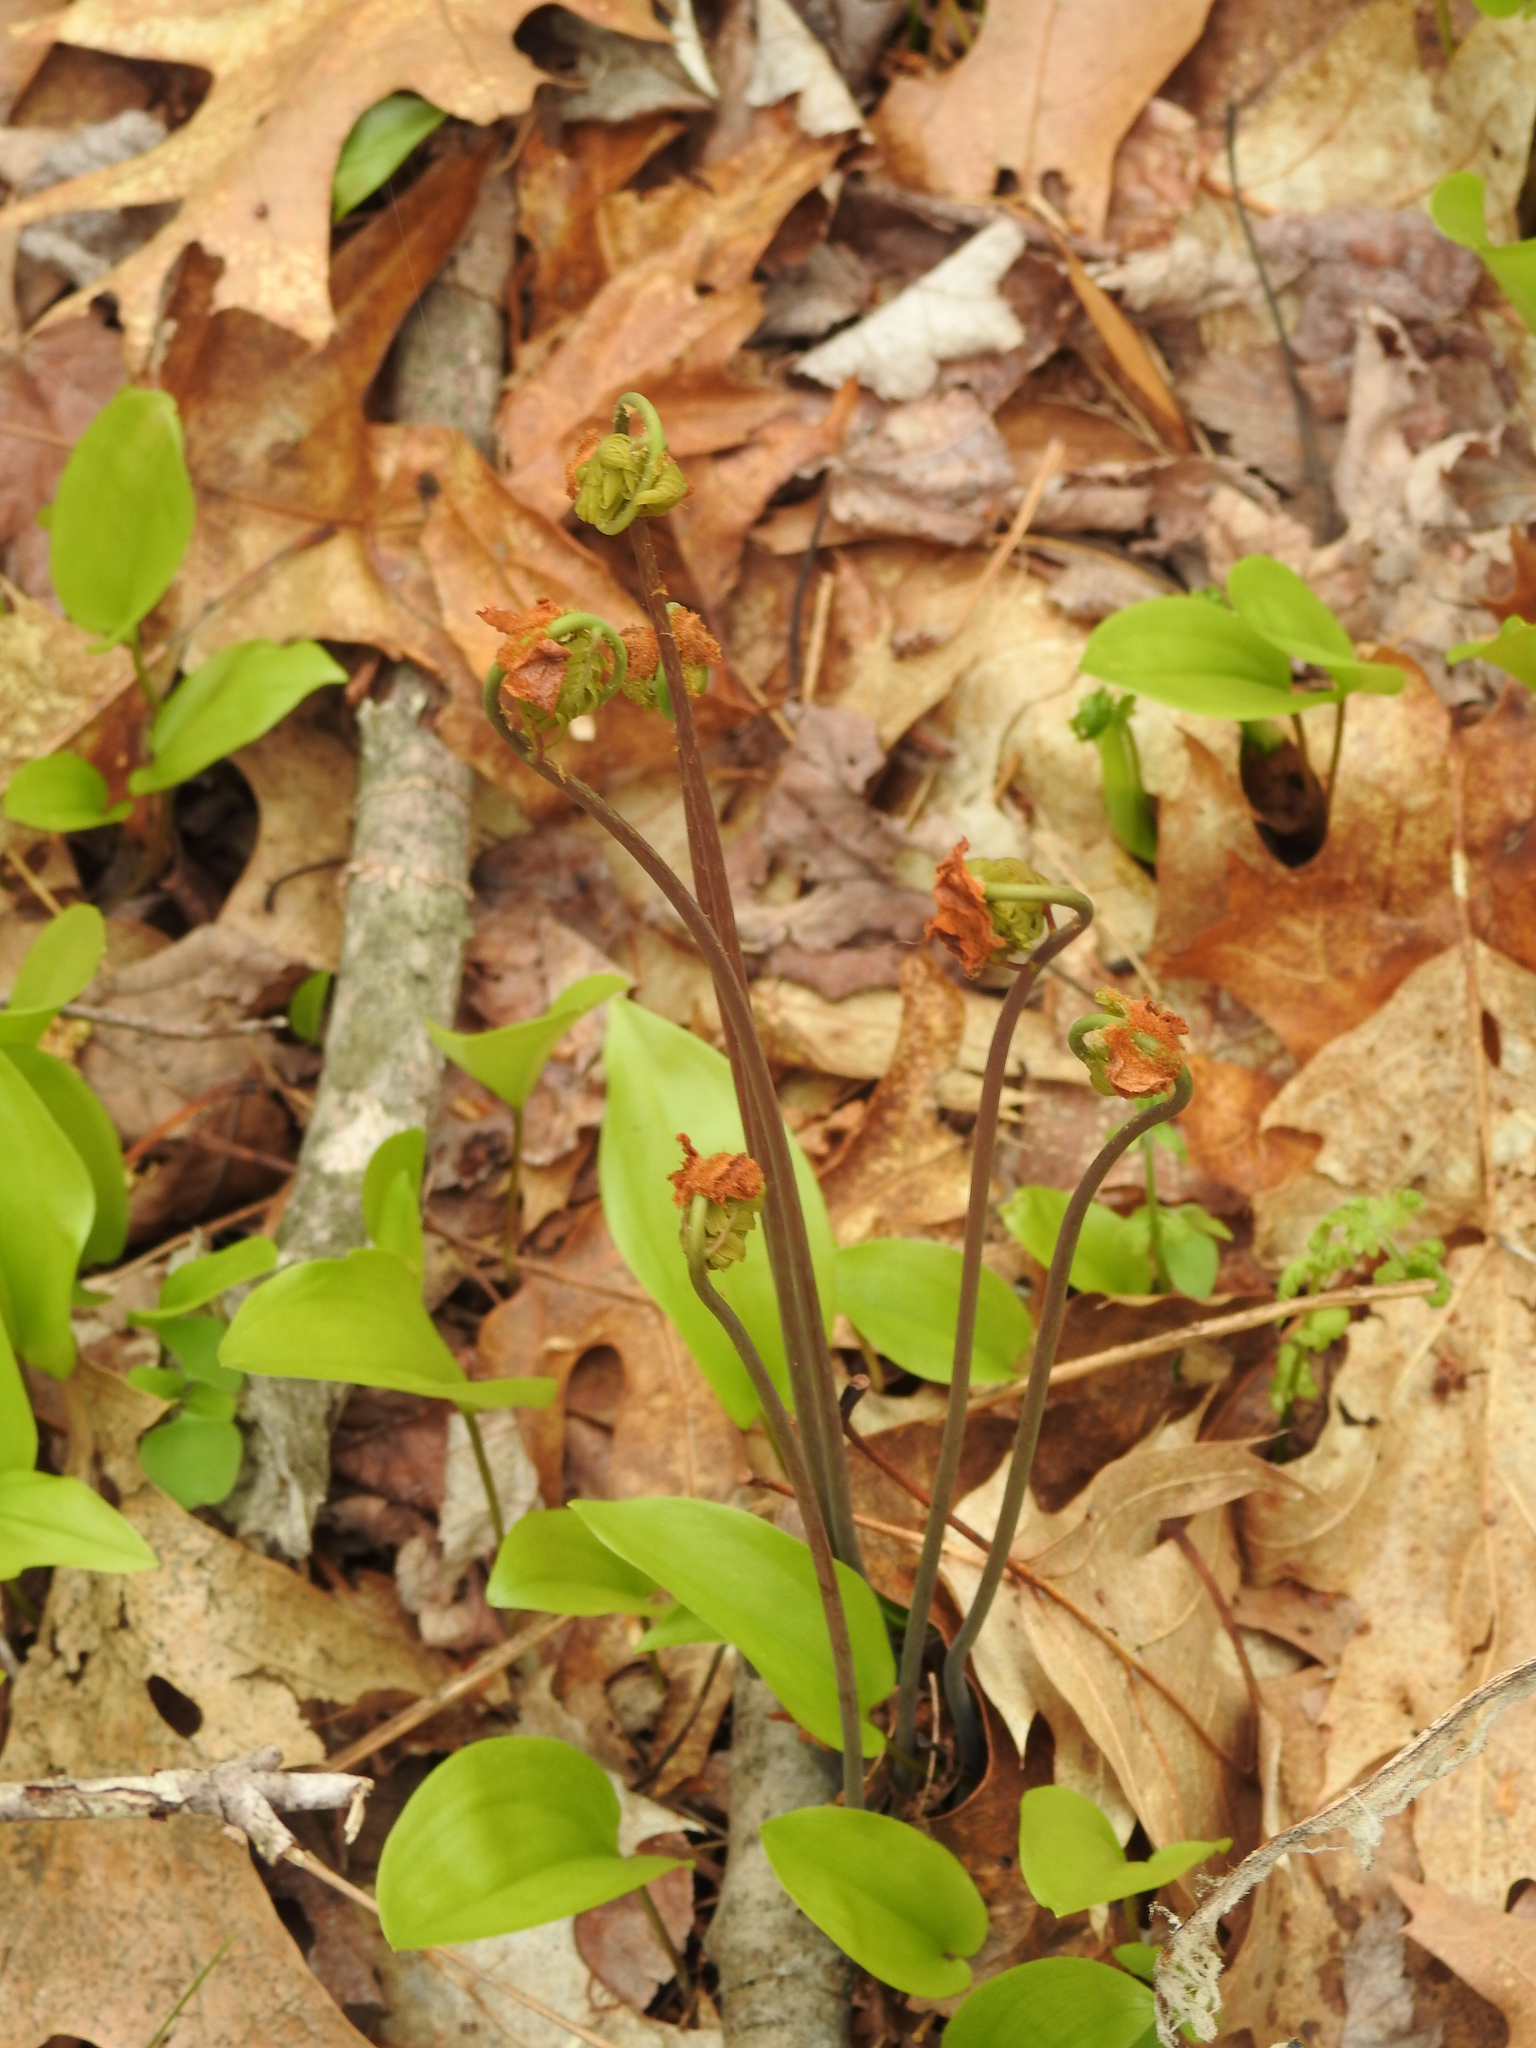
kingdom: Plantae
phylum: Tracheophyta
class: Polypodiopsida
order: Osmundales
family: Osmundaceae
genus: Osmunda
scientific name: Osmunda spectabilis
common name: American royal fern
